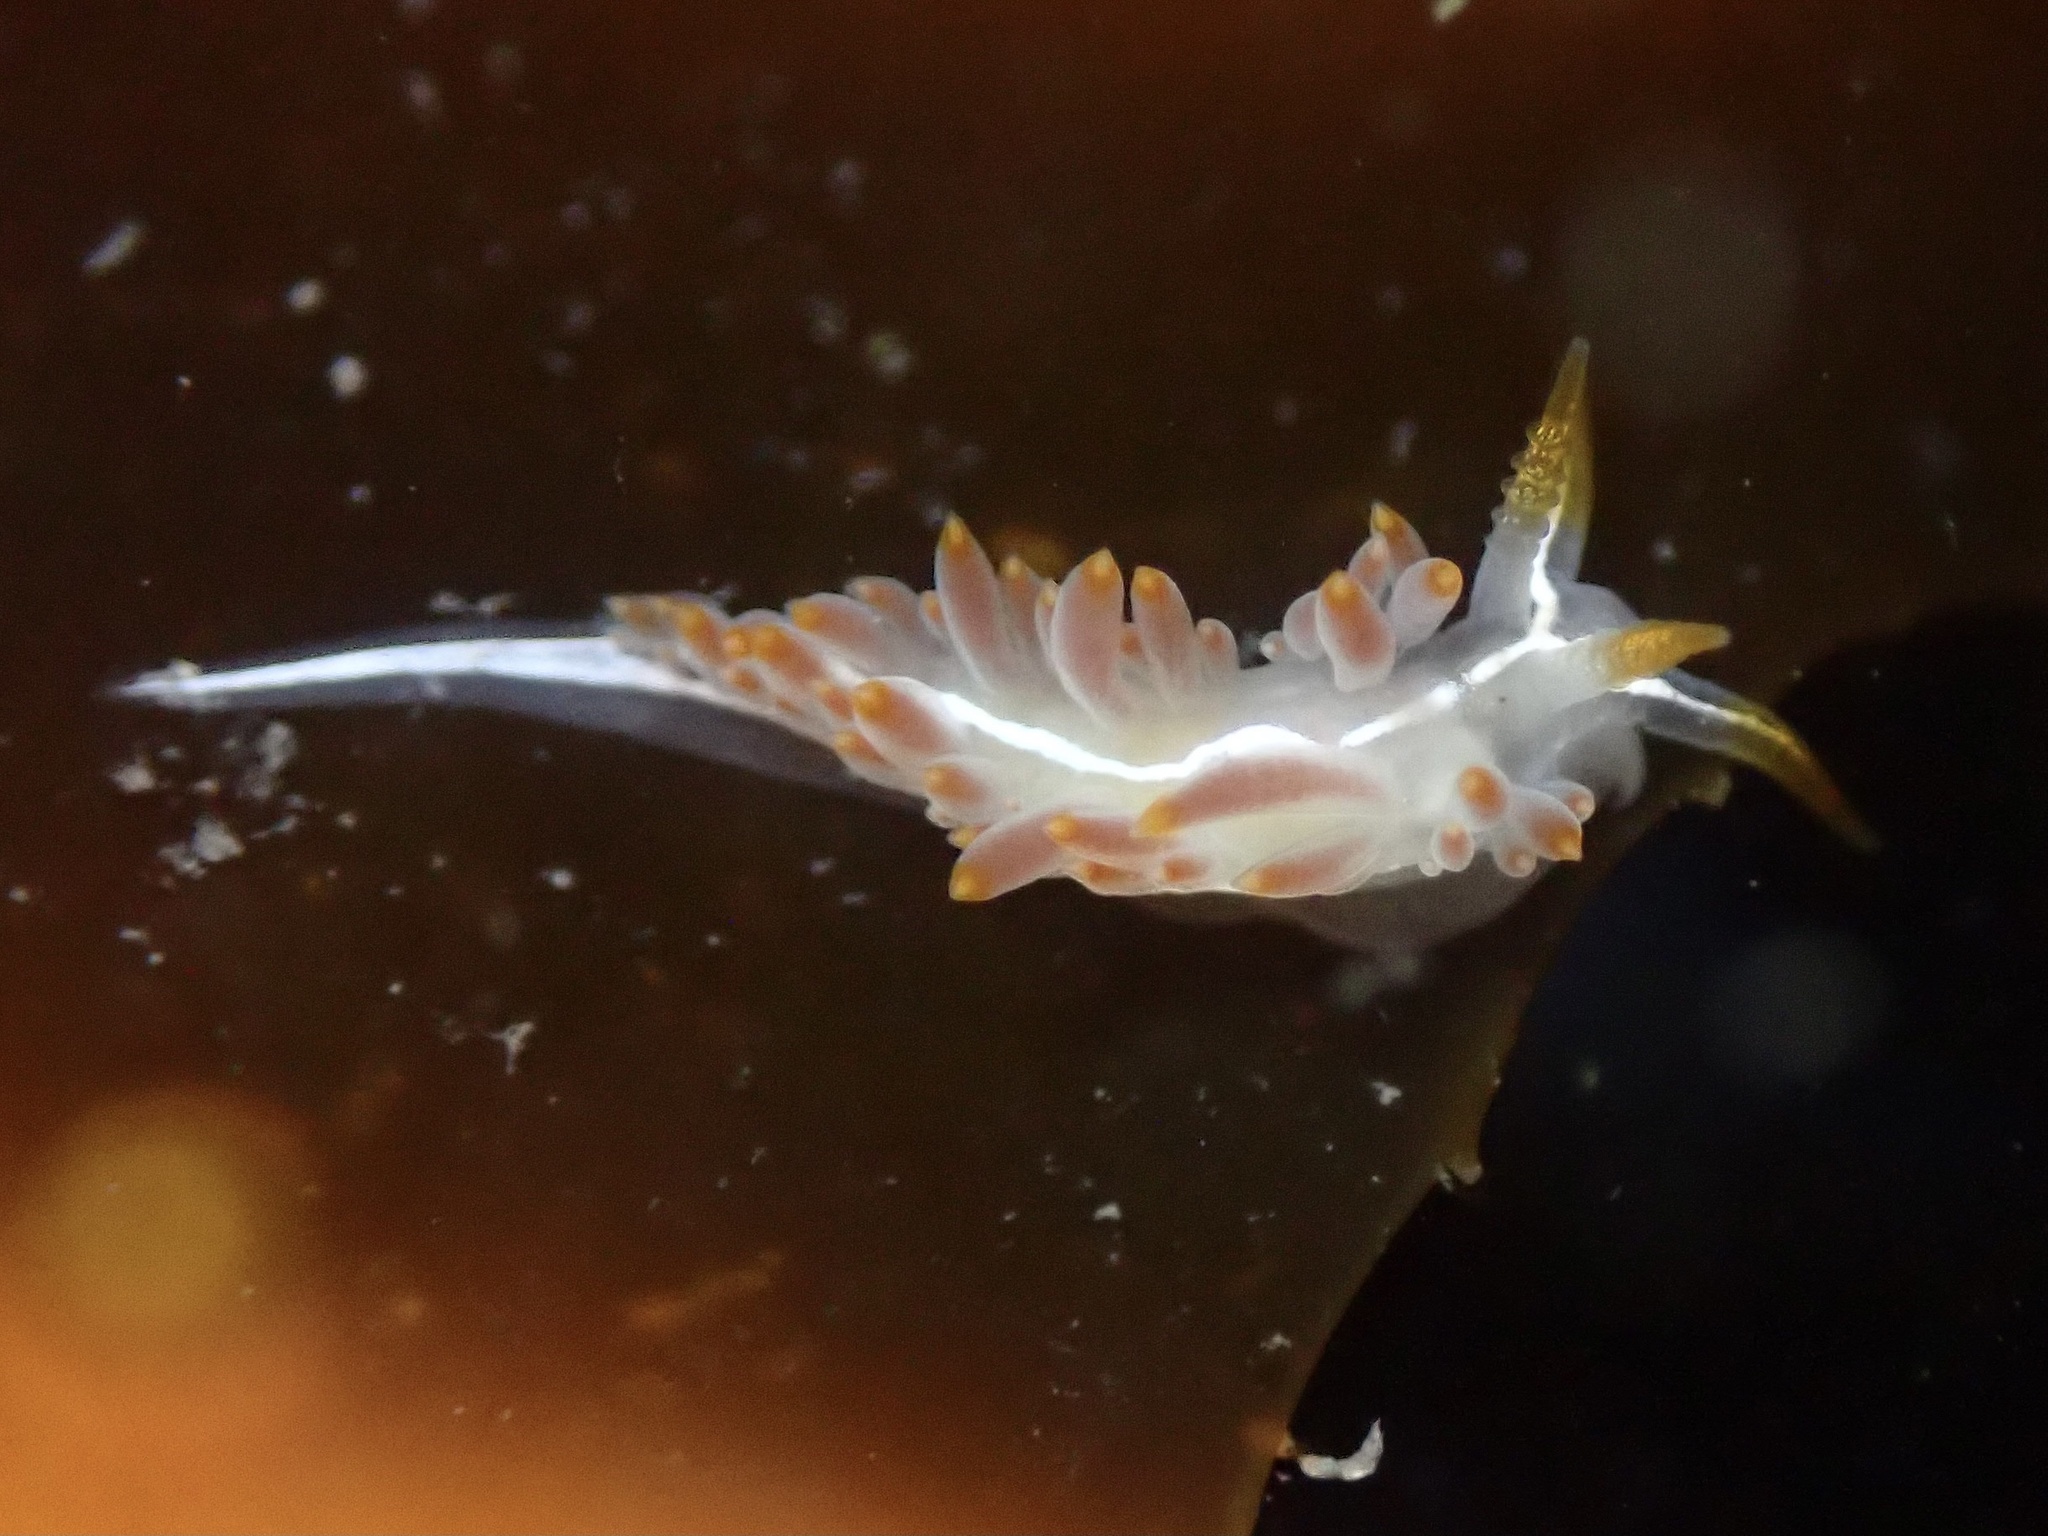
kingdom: Animalia
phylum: Mollusca
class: Gastropoda
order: Nudibranchia
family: Coryphellidae
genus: Coryphella
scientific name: Coryphella trilineata
